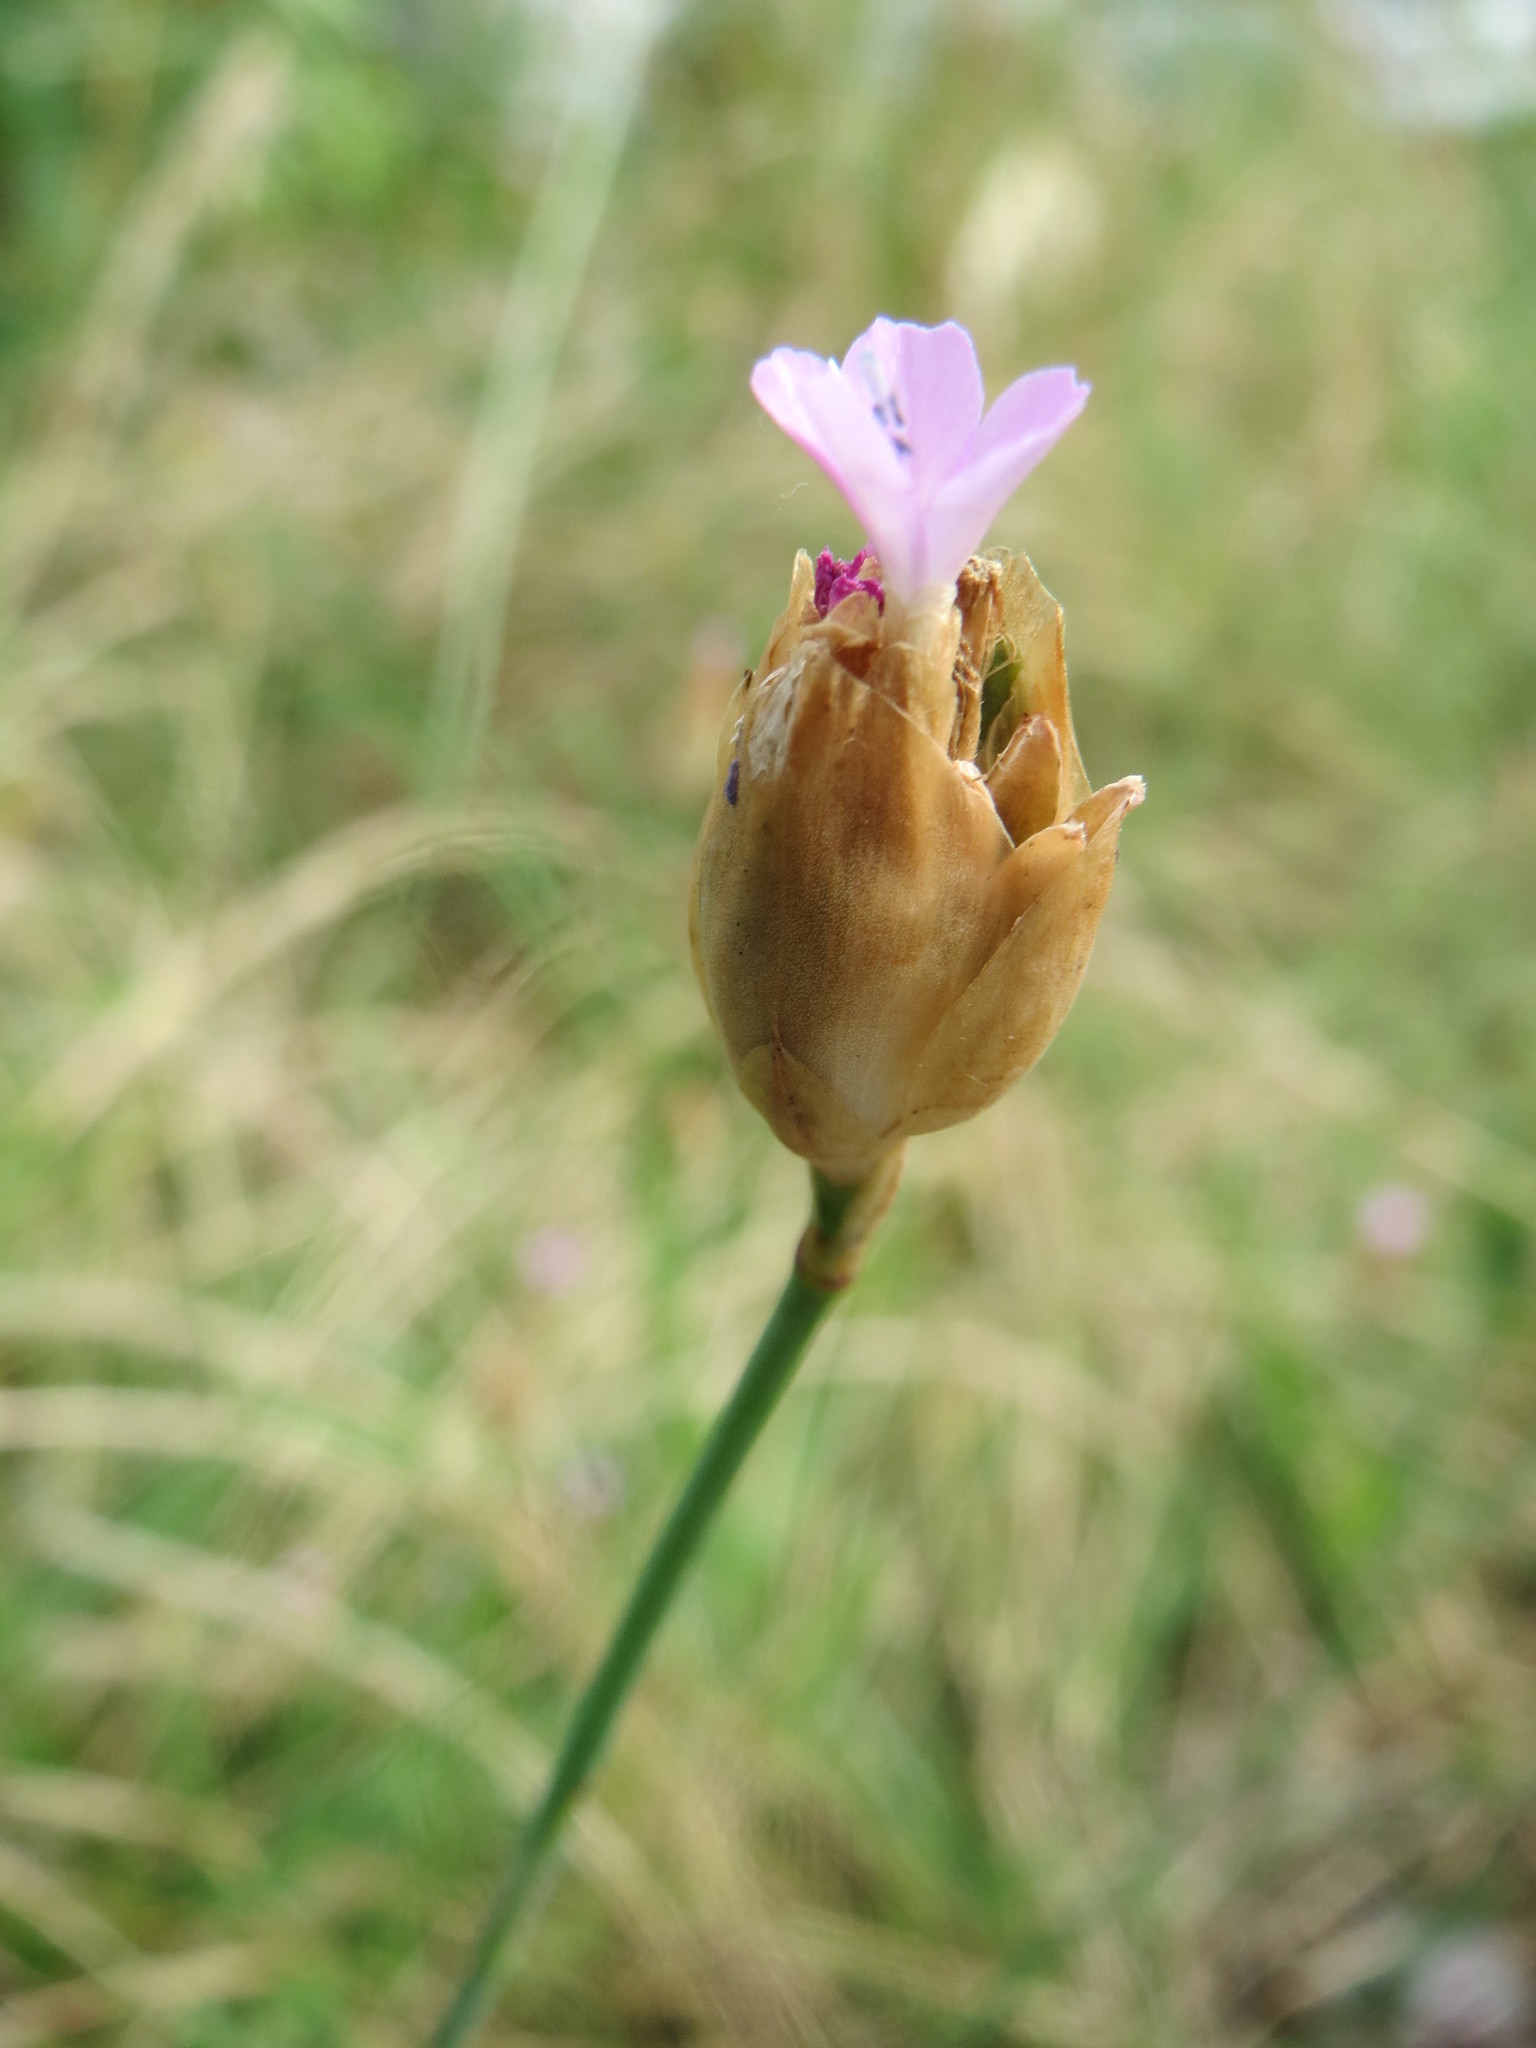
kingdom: Plantae
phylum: Tracheophyta
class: Magnoliopsida
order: Caryophyllales
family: Caryophyllaceae
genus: Petrorhagia
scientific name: Petrorhagia prolifera
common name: Proliferous pink
